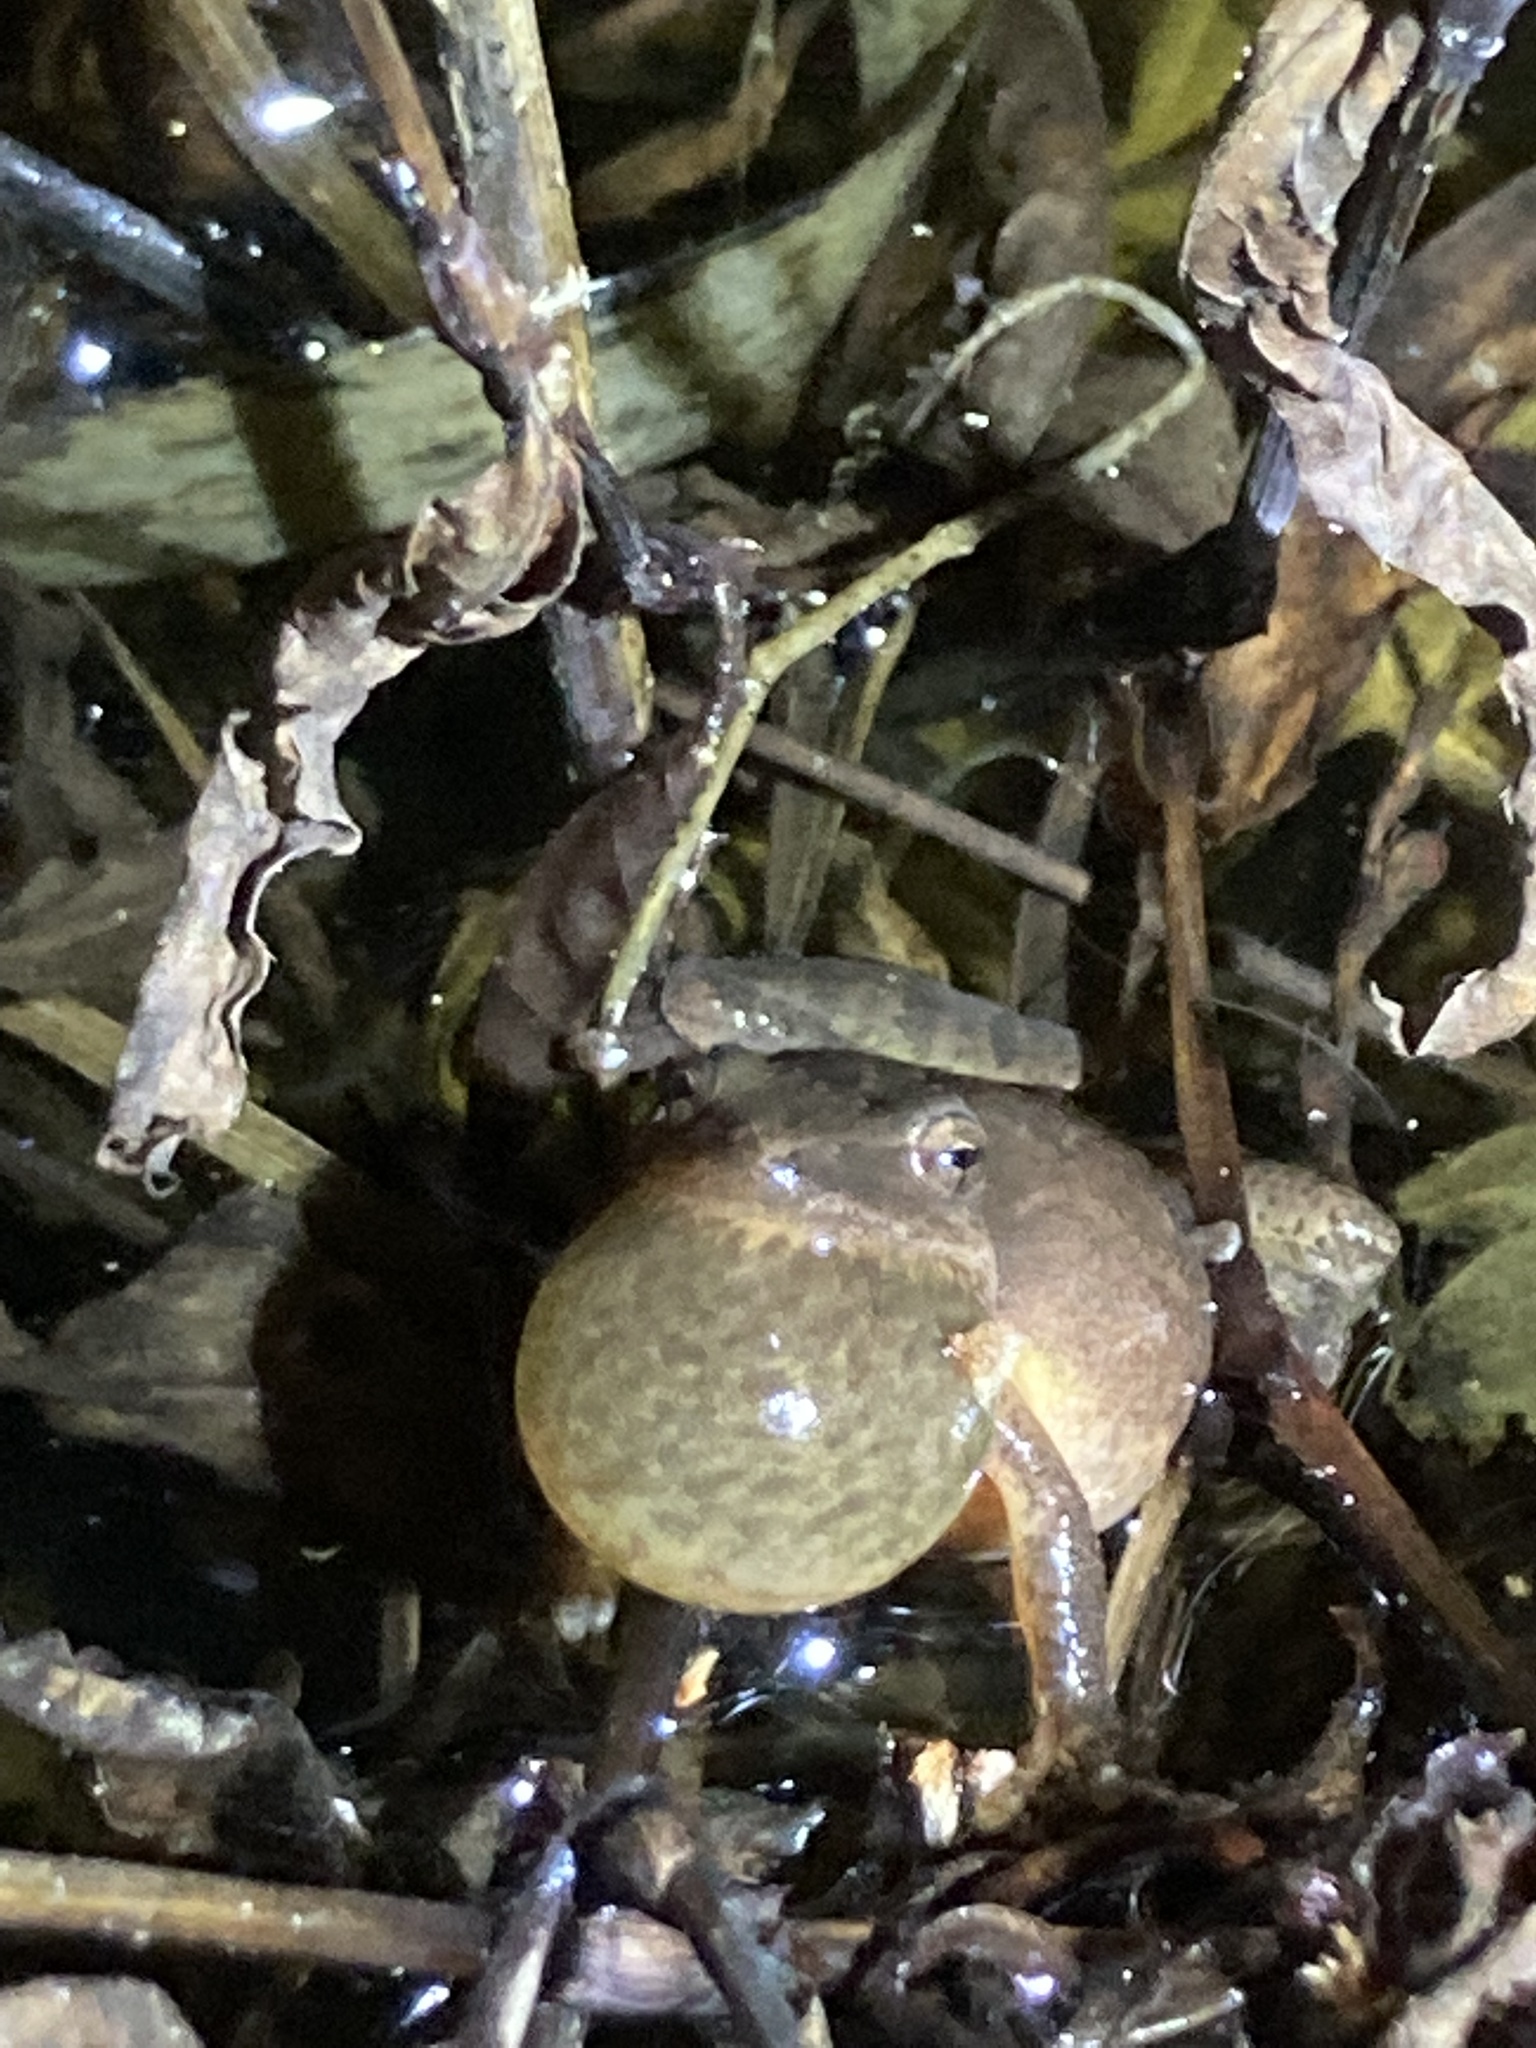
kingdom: Animalia
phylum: Chordata
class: Amphibia
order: Anura
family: Hylidae
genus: Pseudacris
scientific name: Pseudacris crucifer
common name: Spring peeper
